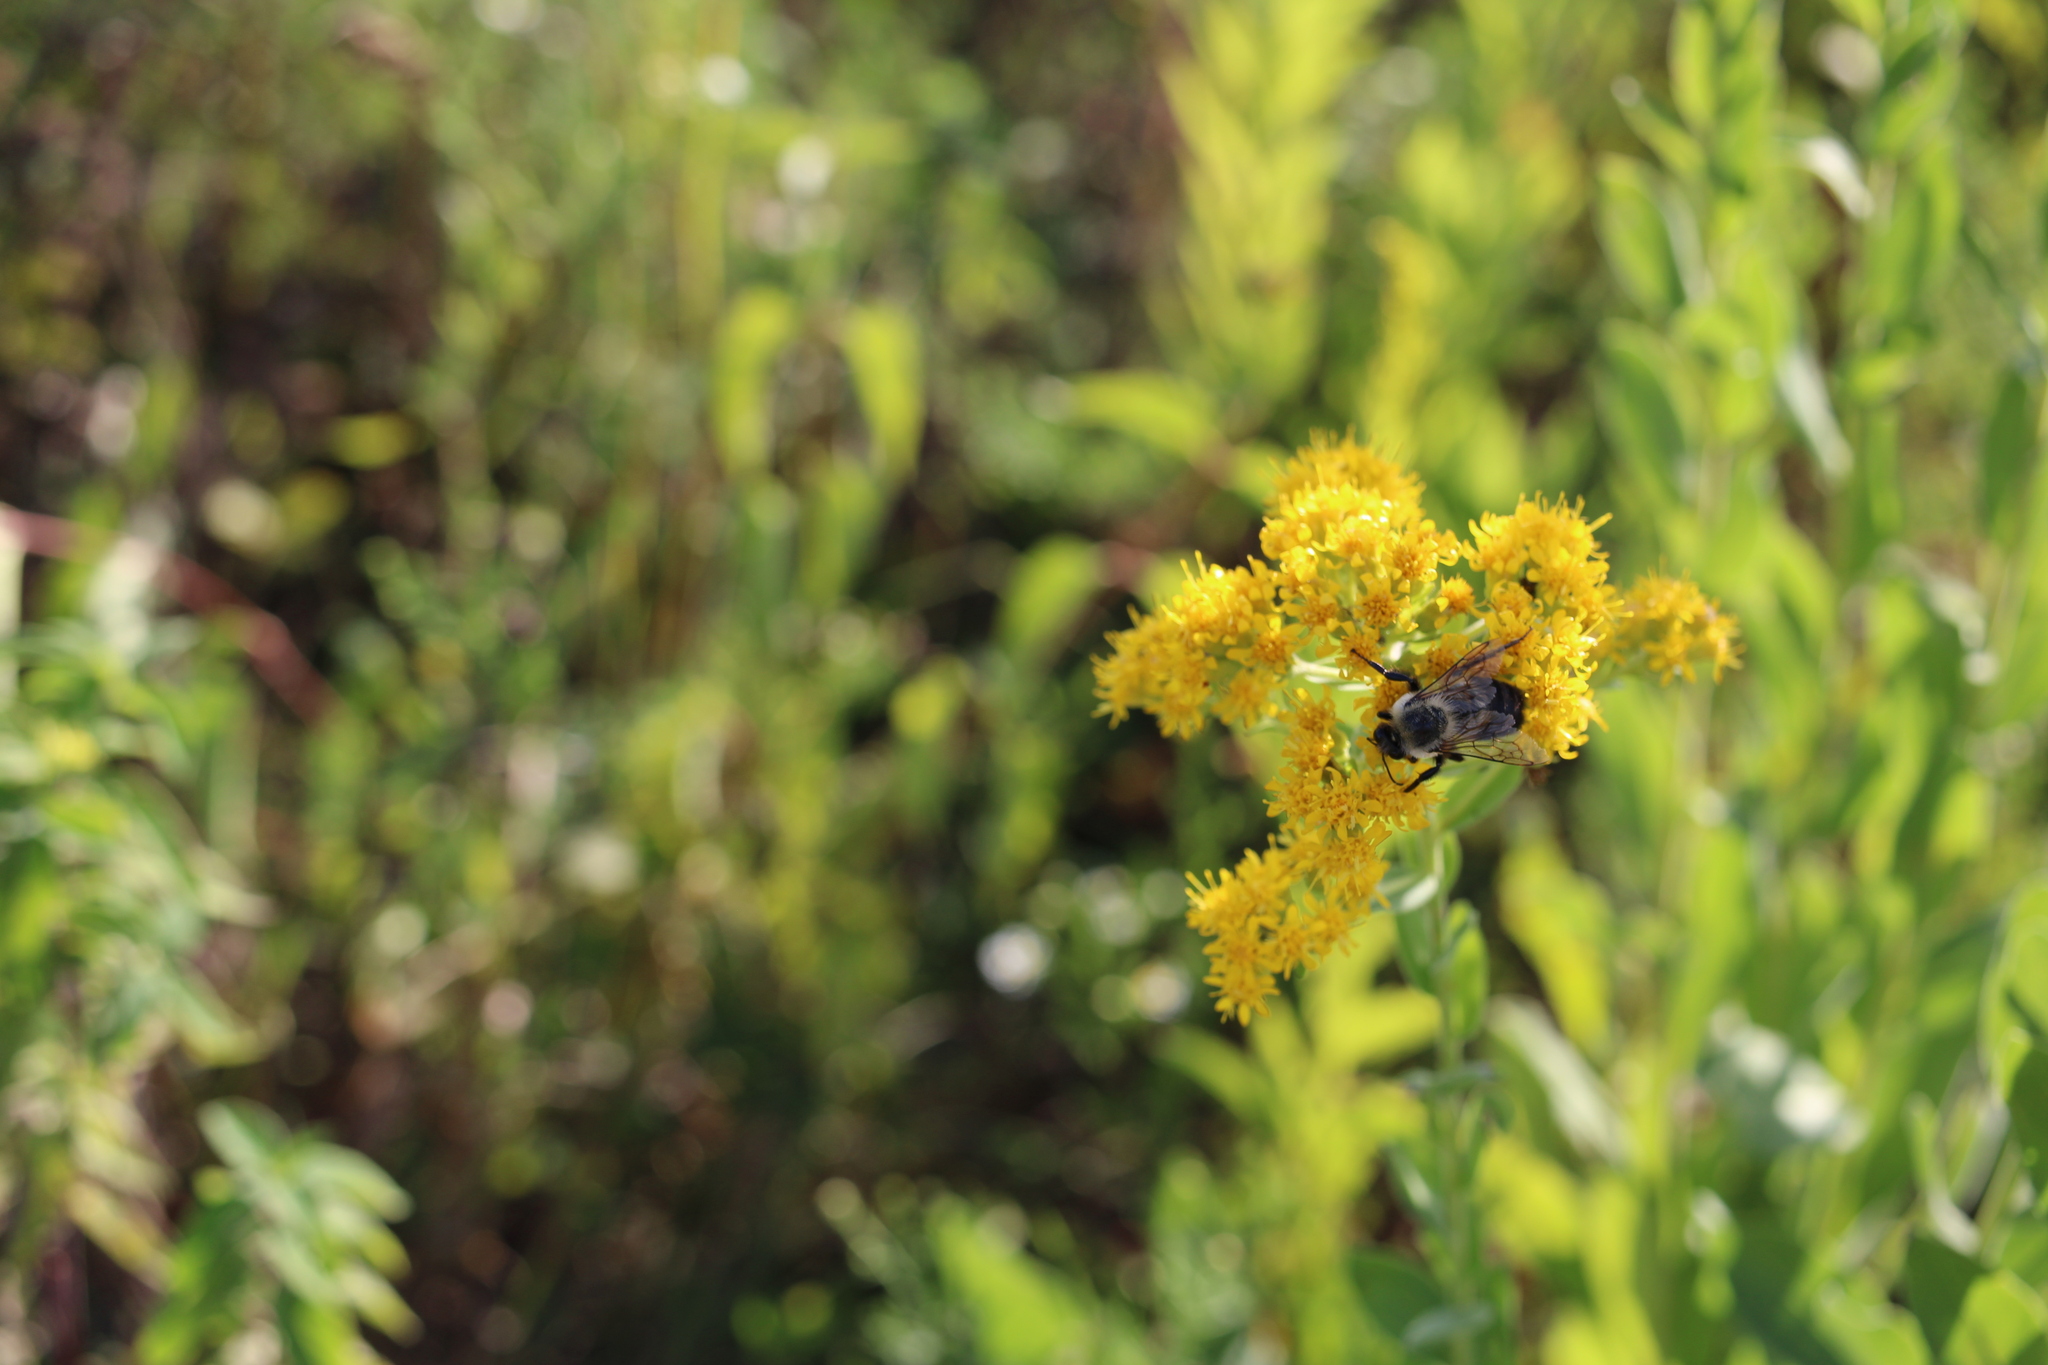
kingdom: Animalia
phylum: Arthropoda
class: Insecta
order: Hymenoptera
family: Apidae
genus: Bombus
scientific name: Bombus griseocollis
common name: Brown-belted bumble bee
